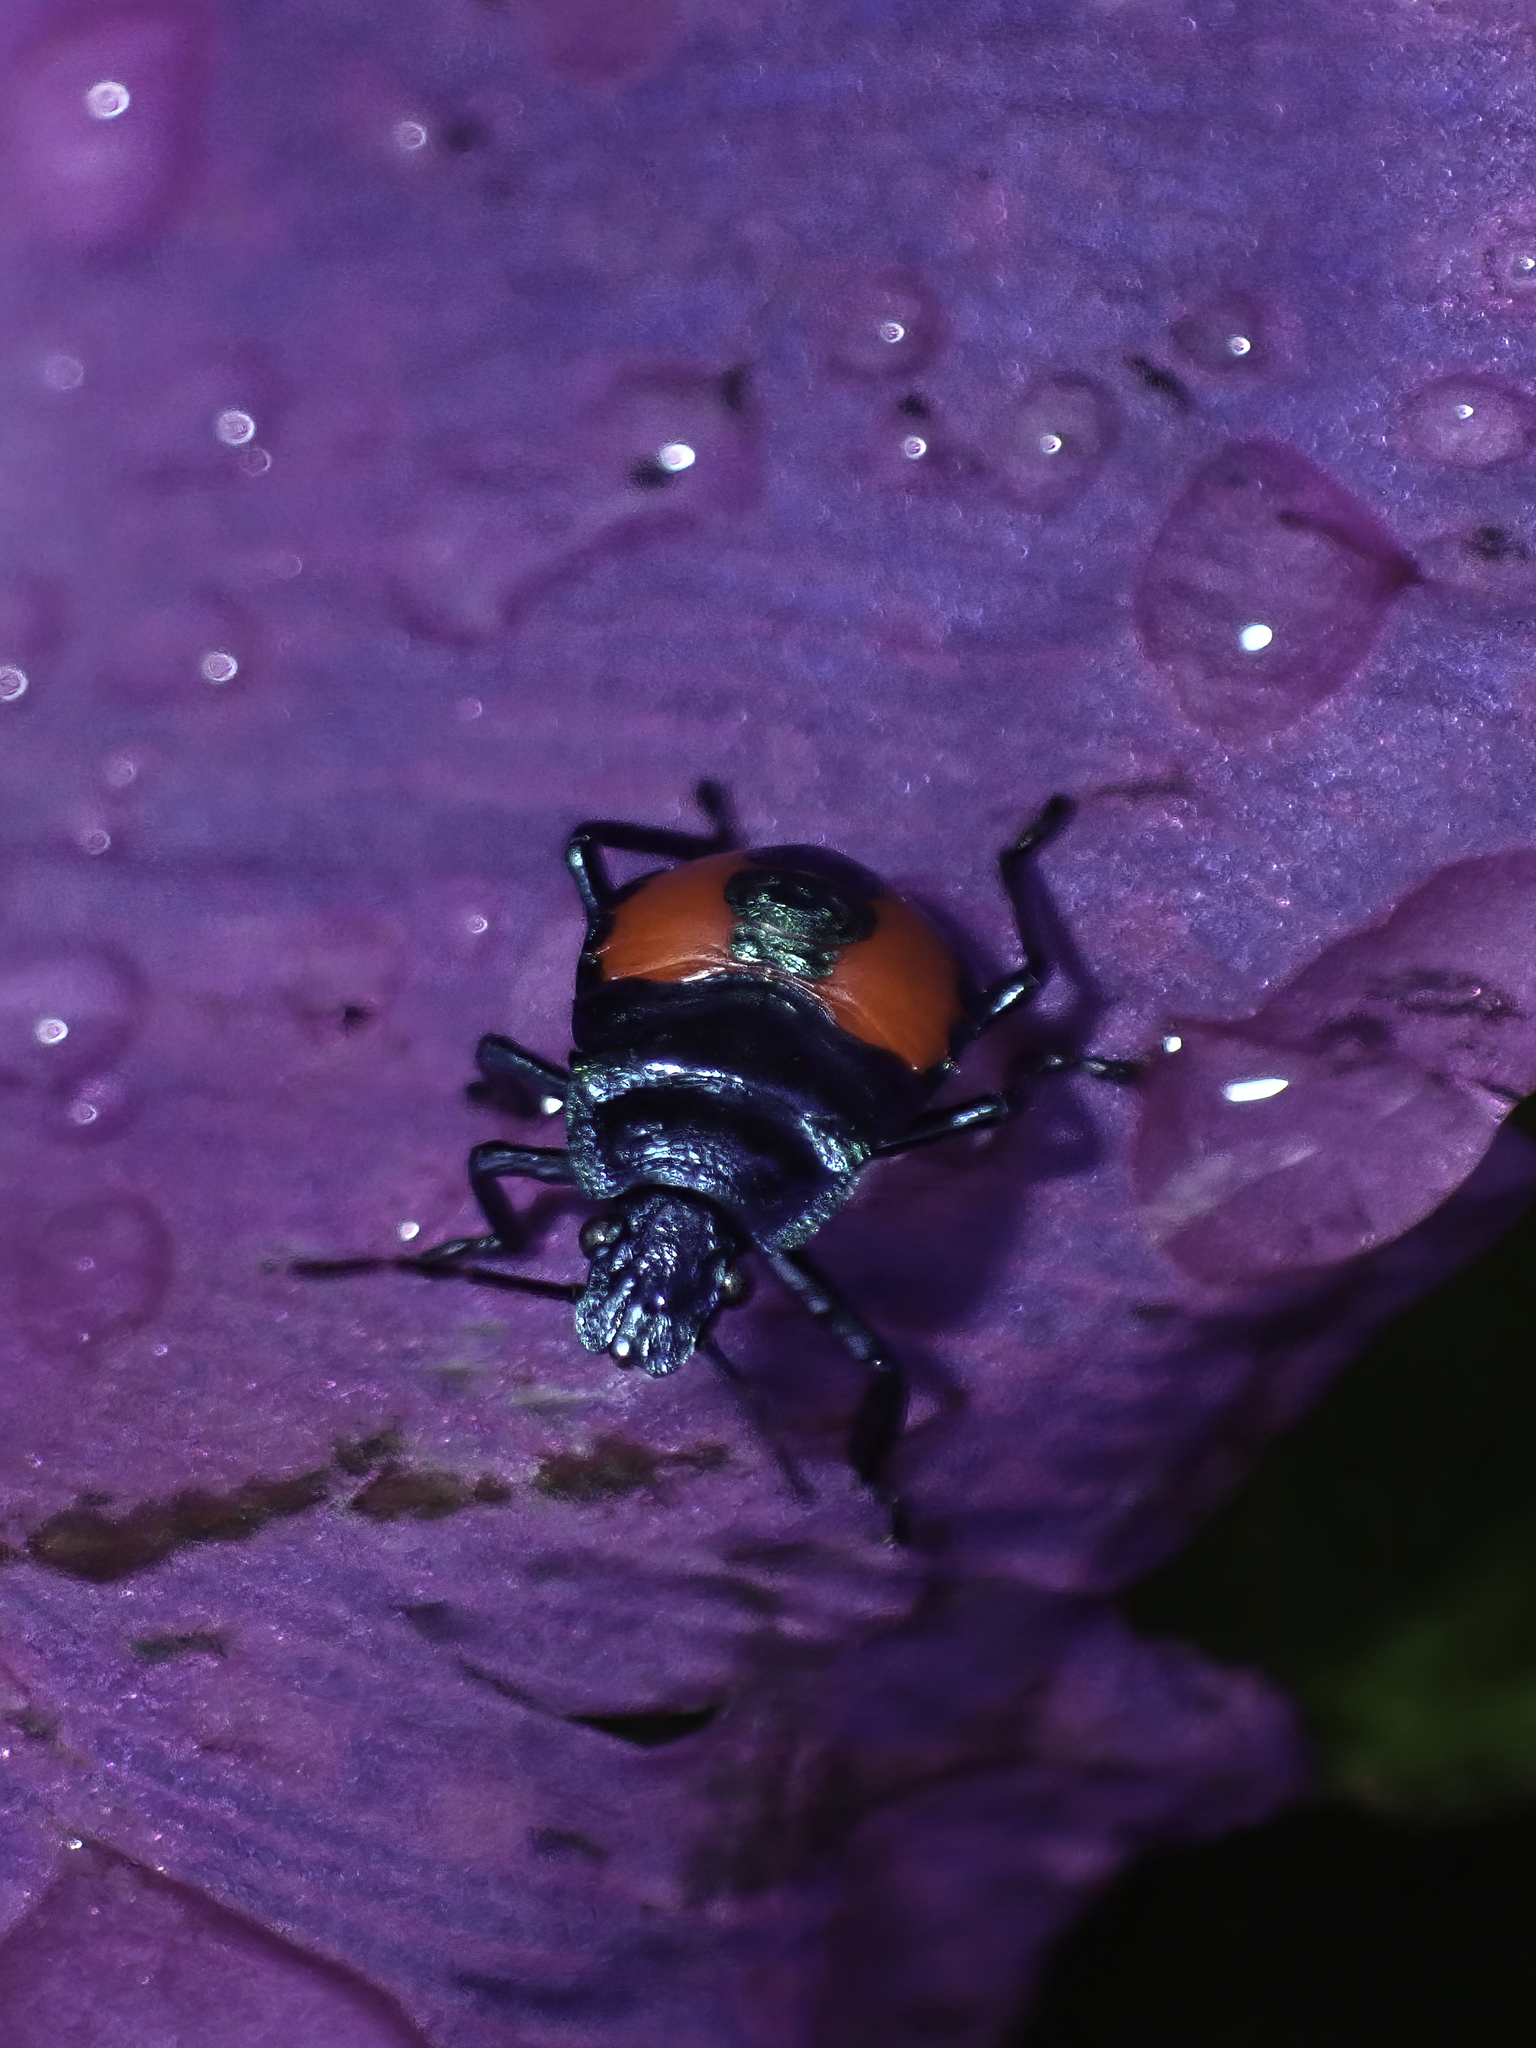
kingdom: Animalia
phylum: Arthropoda
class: Insecta
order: Hemiptera
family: Pentatomidae
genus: Euthyrhynchus
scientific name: Euthyrhynchus floridanus
